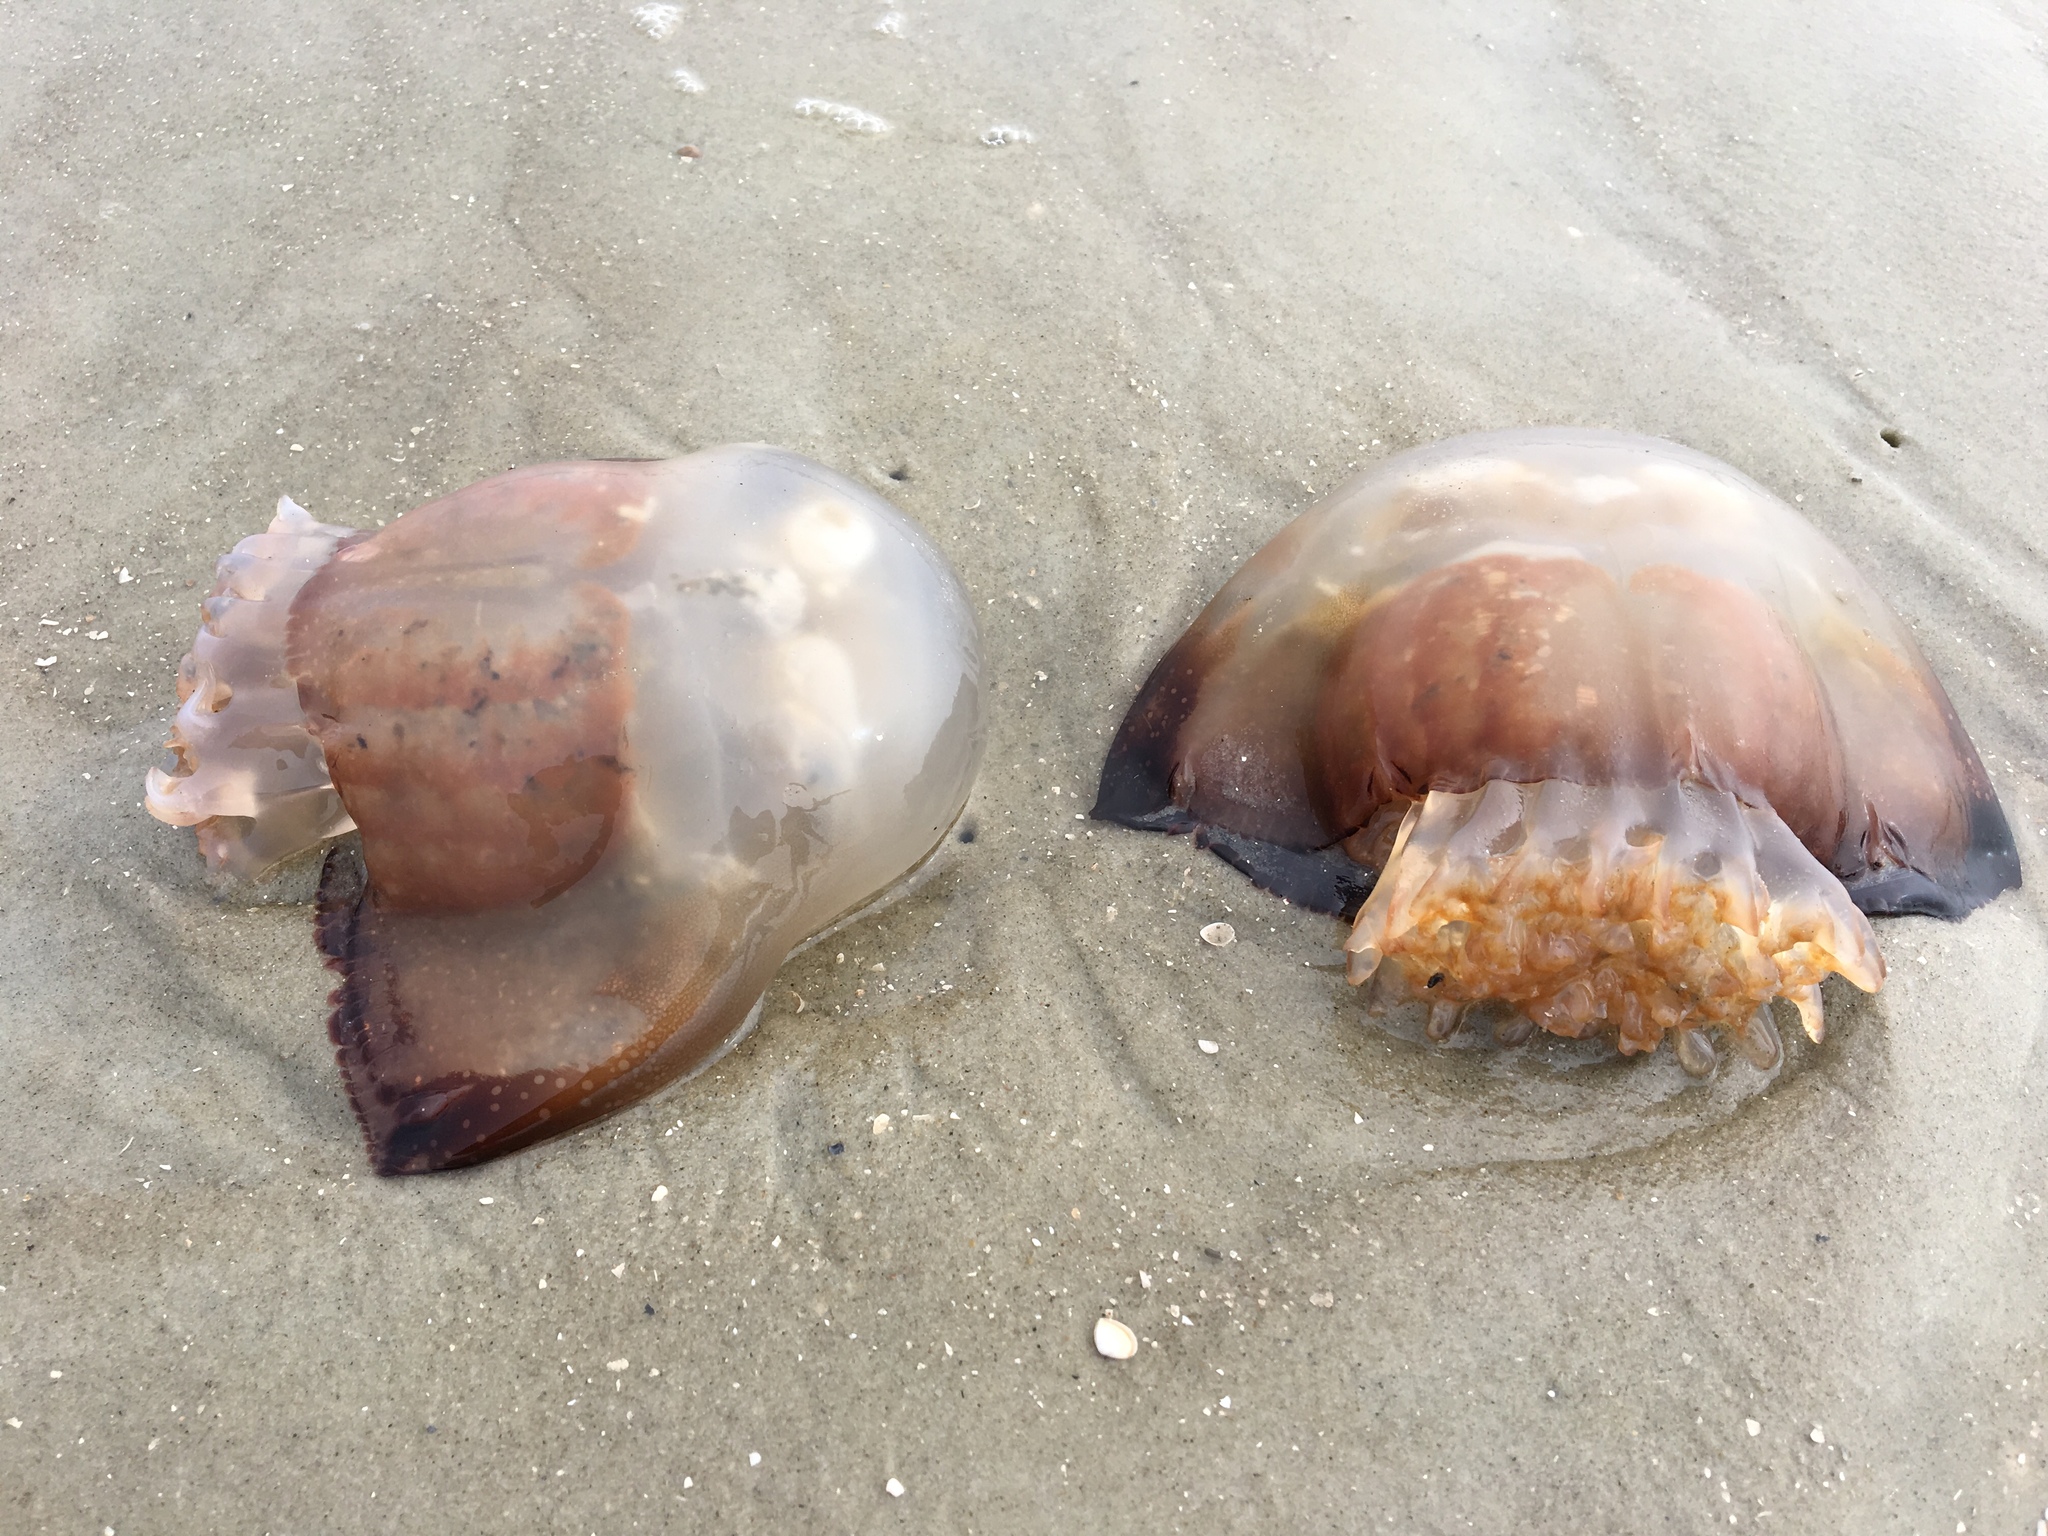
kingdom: Animalia
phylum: Cnidaria
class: Scyphozoa
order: Rhizostomeae
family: Stomolophidae
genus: Stomolophus
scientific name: Stomolophus meleagris
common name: Cabbagehead
